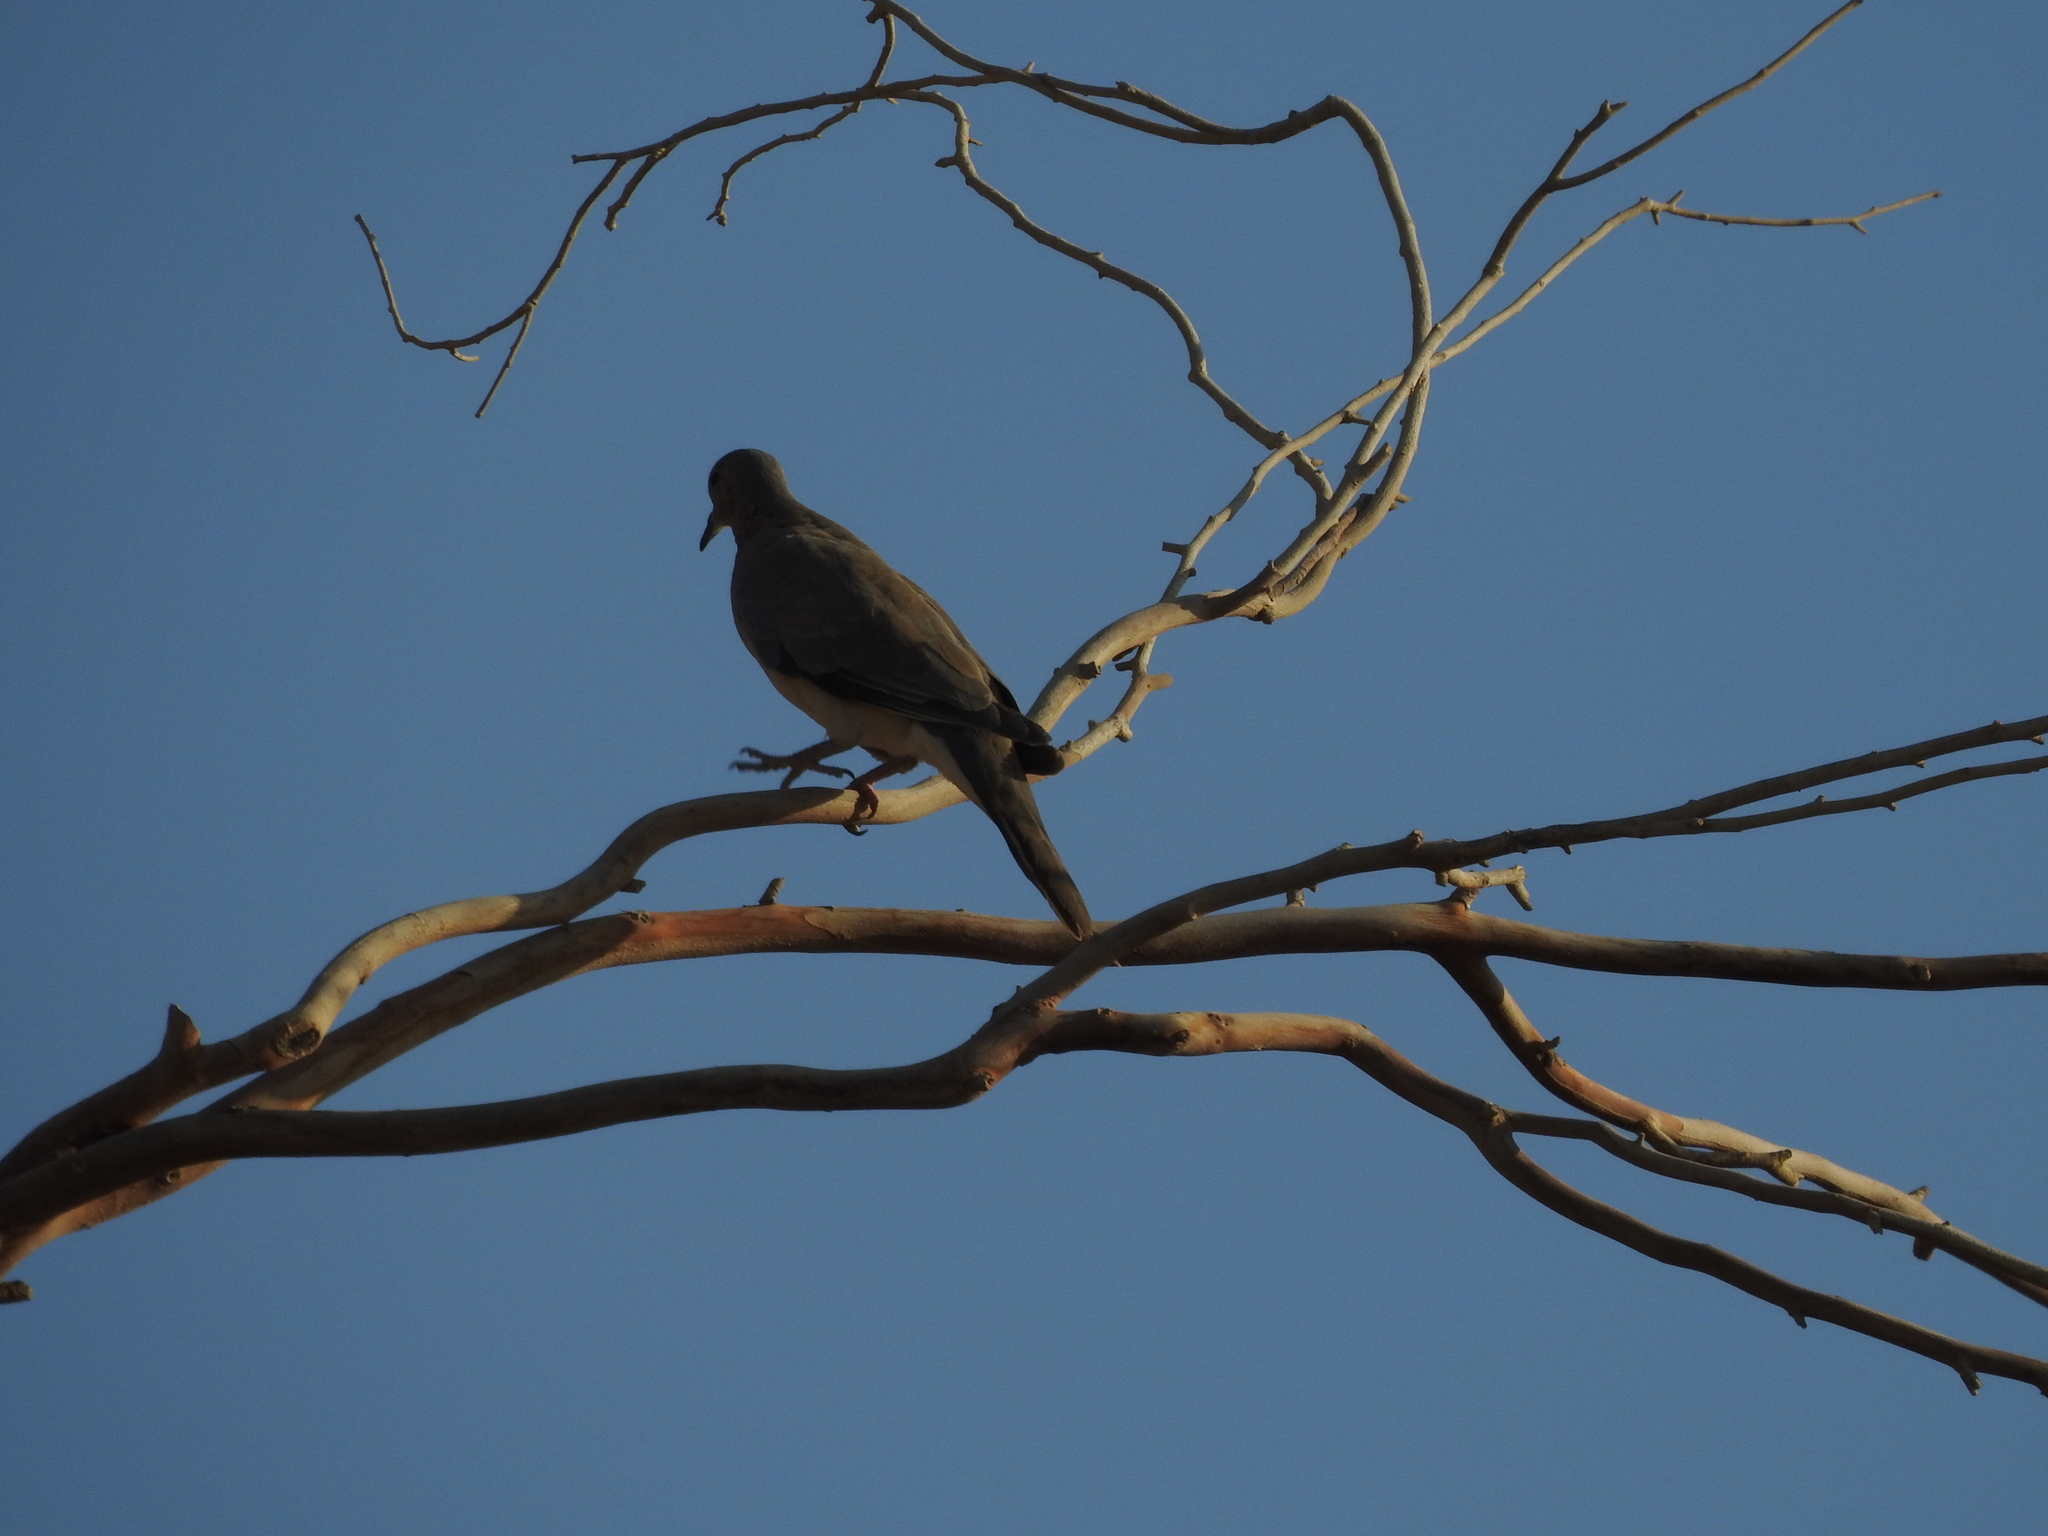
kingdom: Animalia
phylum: Chordata
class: Aves
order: Columbiformes
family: Columbidae
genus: Spilopelia
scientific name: Spilopelia senegalensis
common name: Laughing dove
